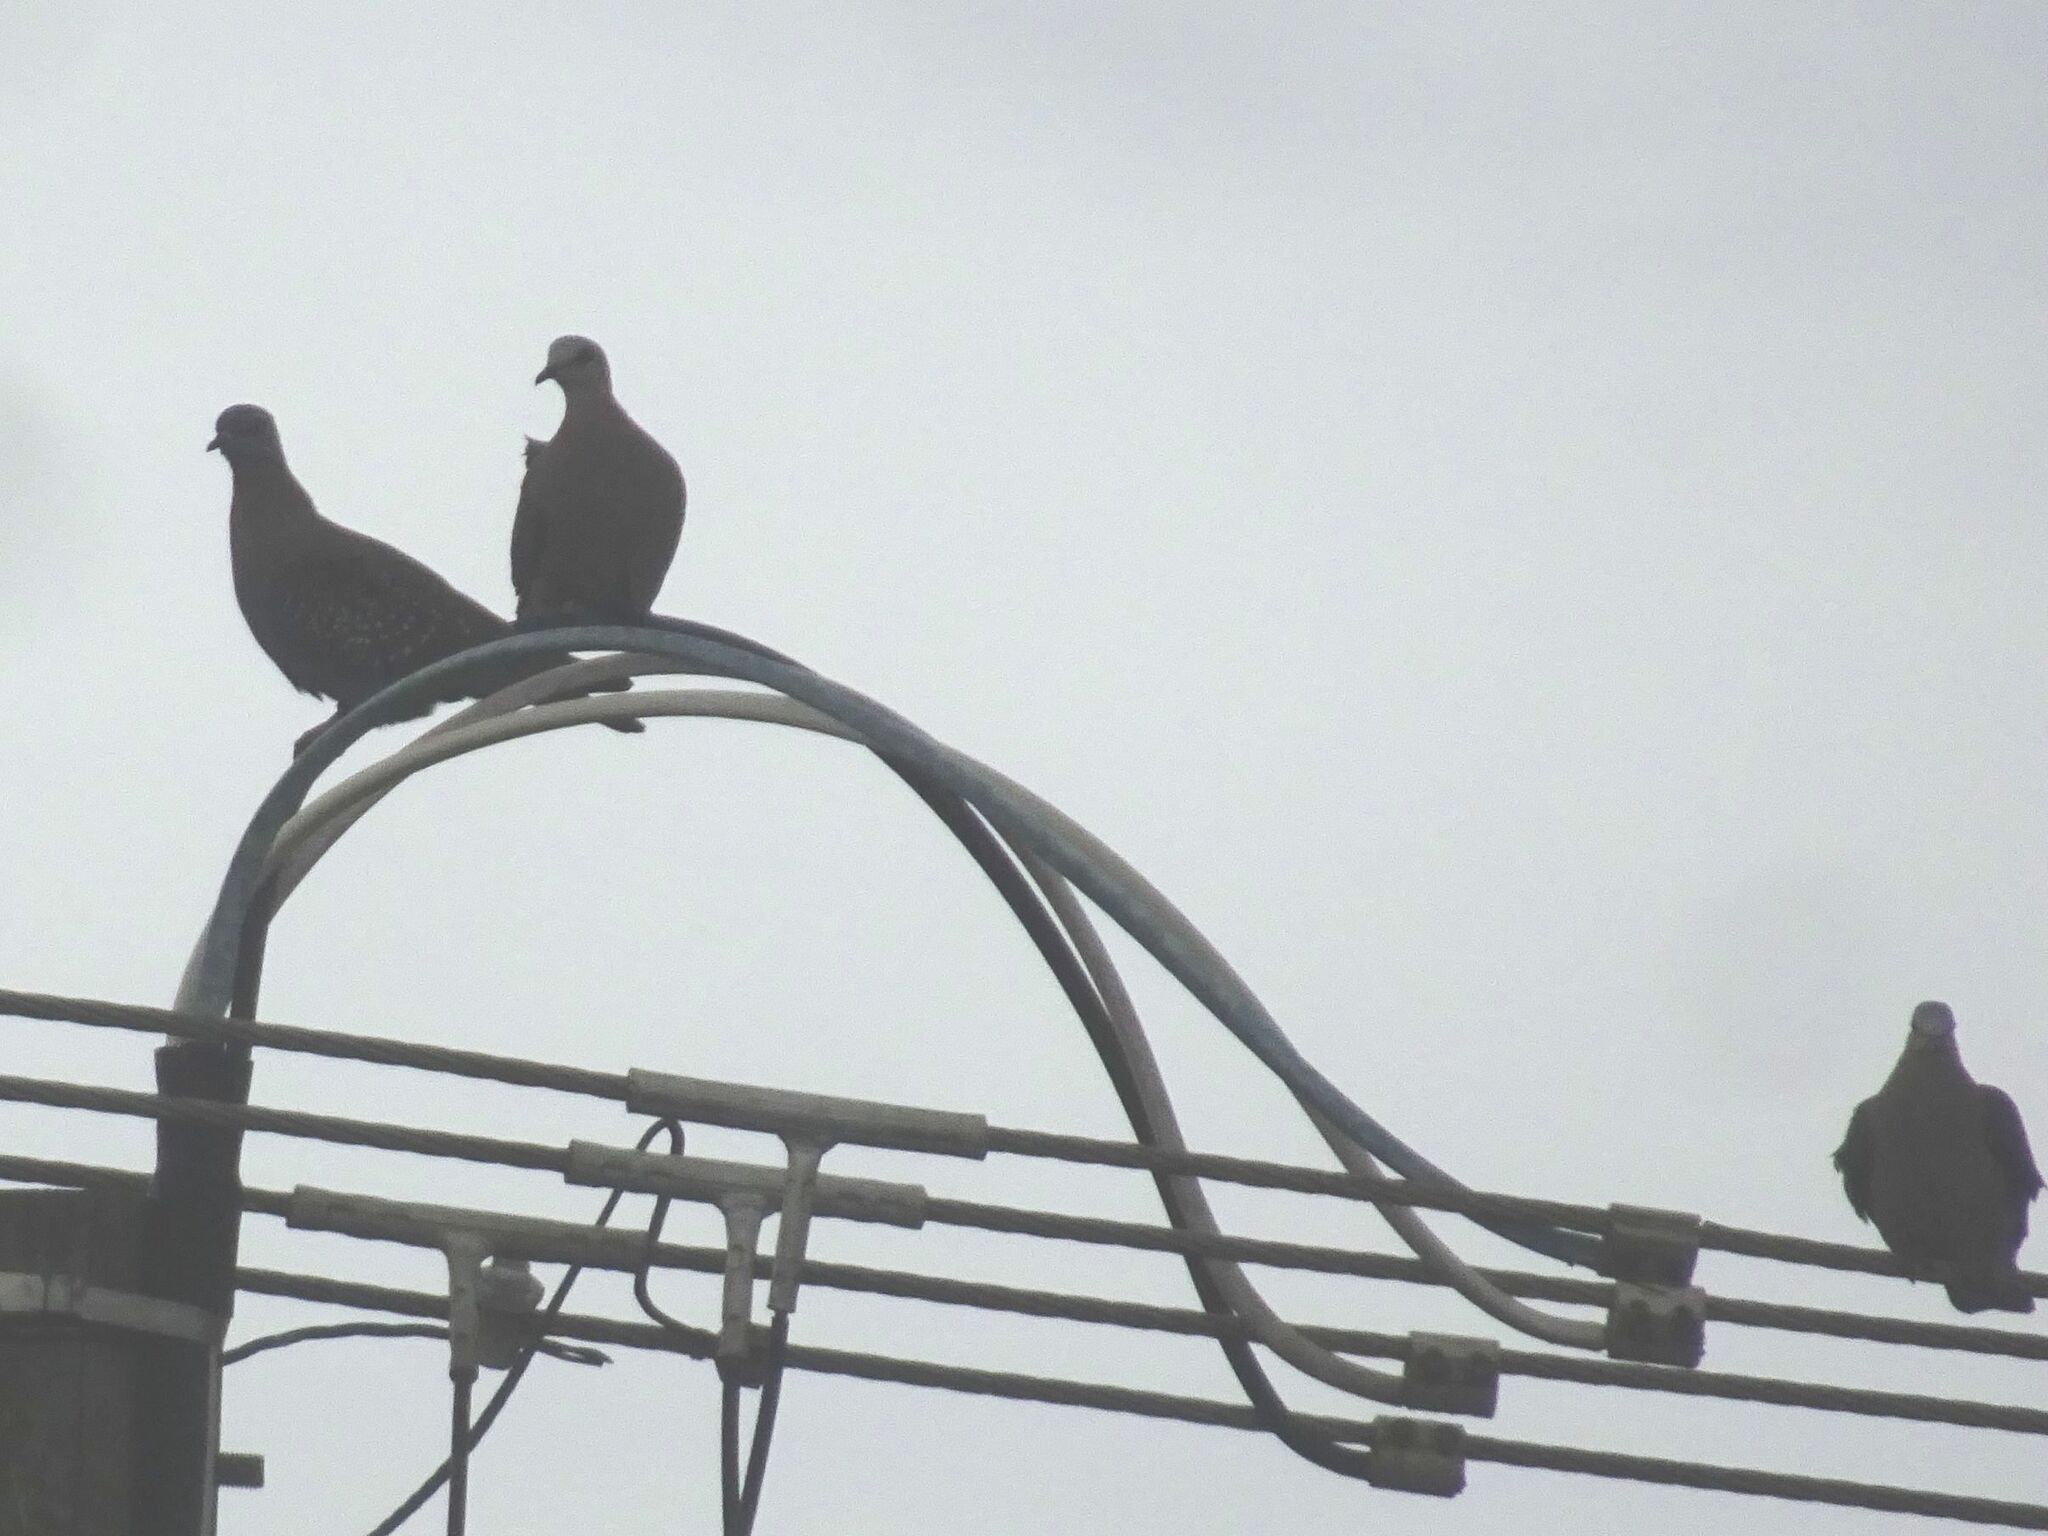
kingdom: Animalia
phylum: Chordata
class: Aves
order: Columbiformes
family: Columbidae
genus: Streptopelia
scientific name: Streptopelia semitorquata
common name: Red-eyed dove
